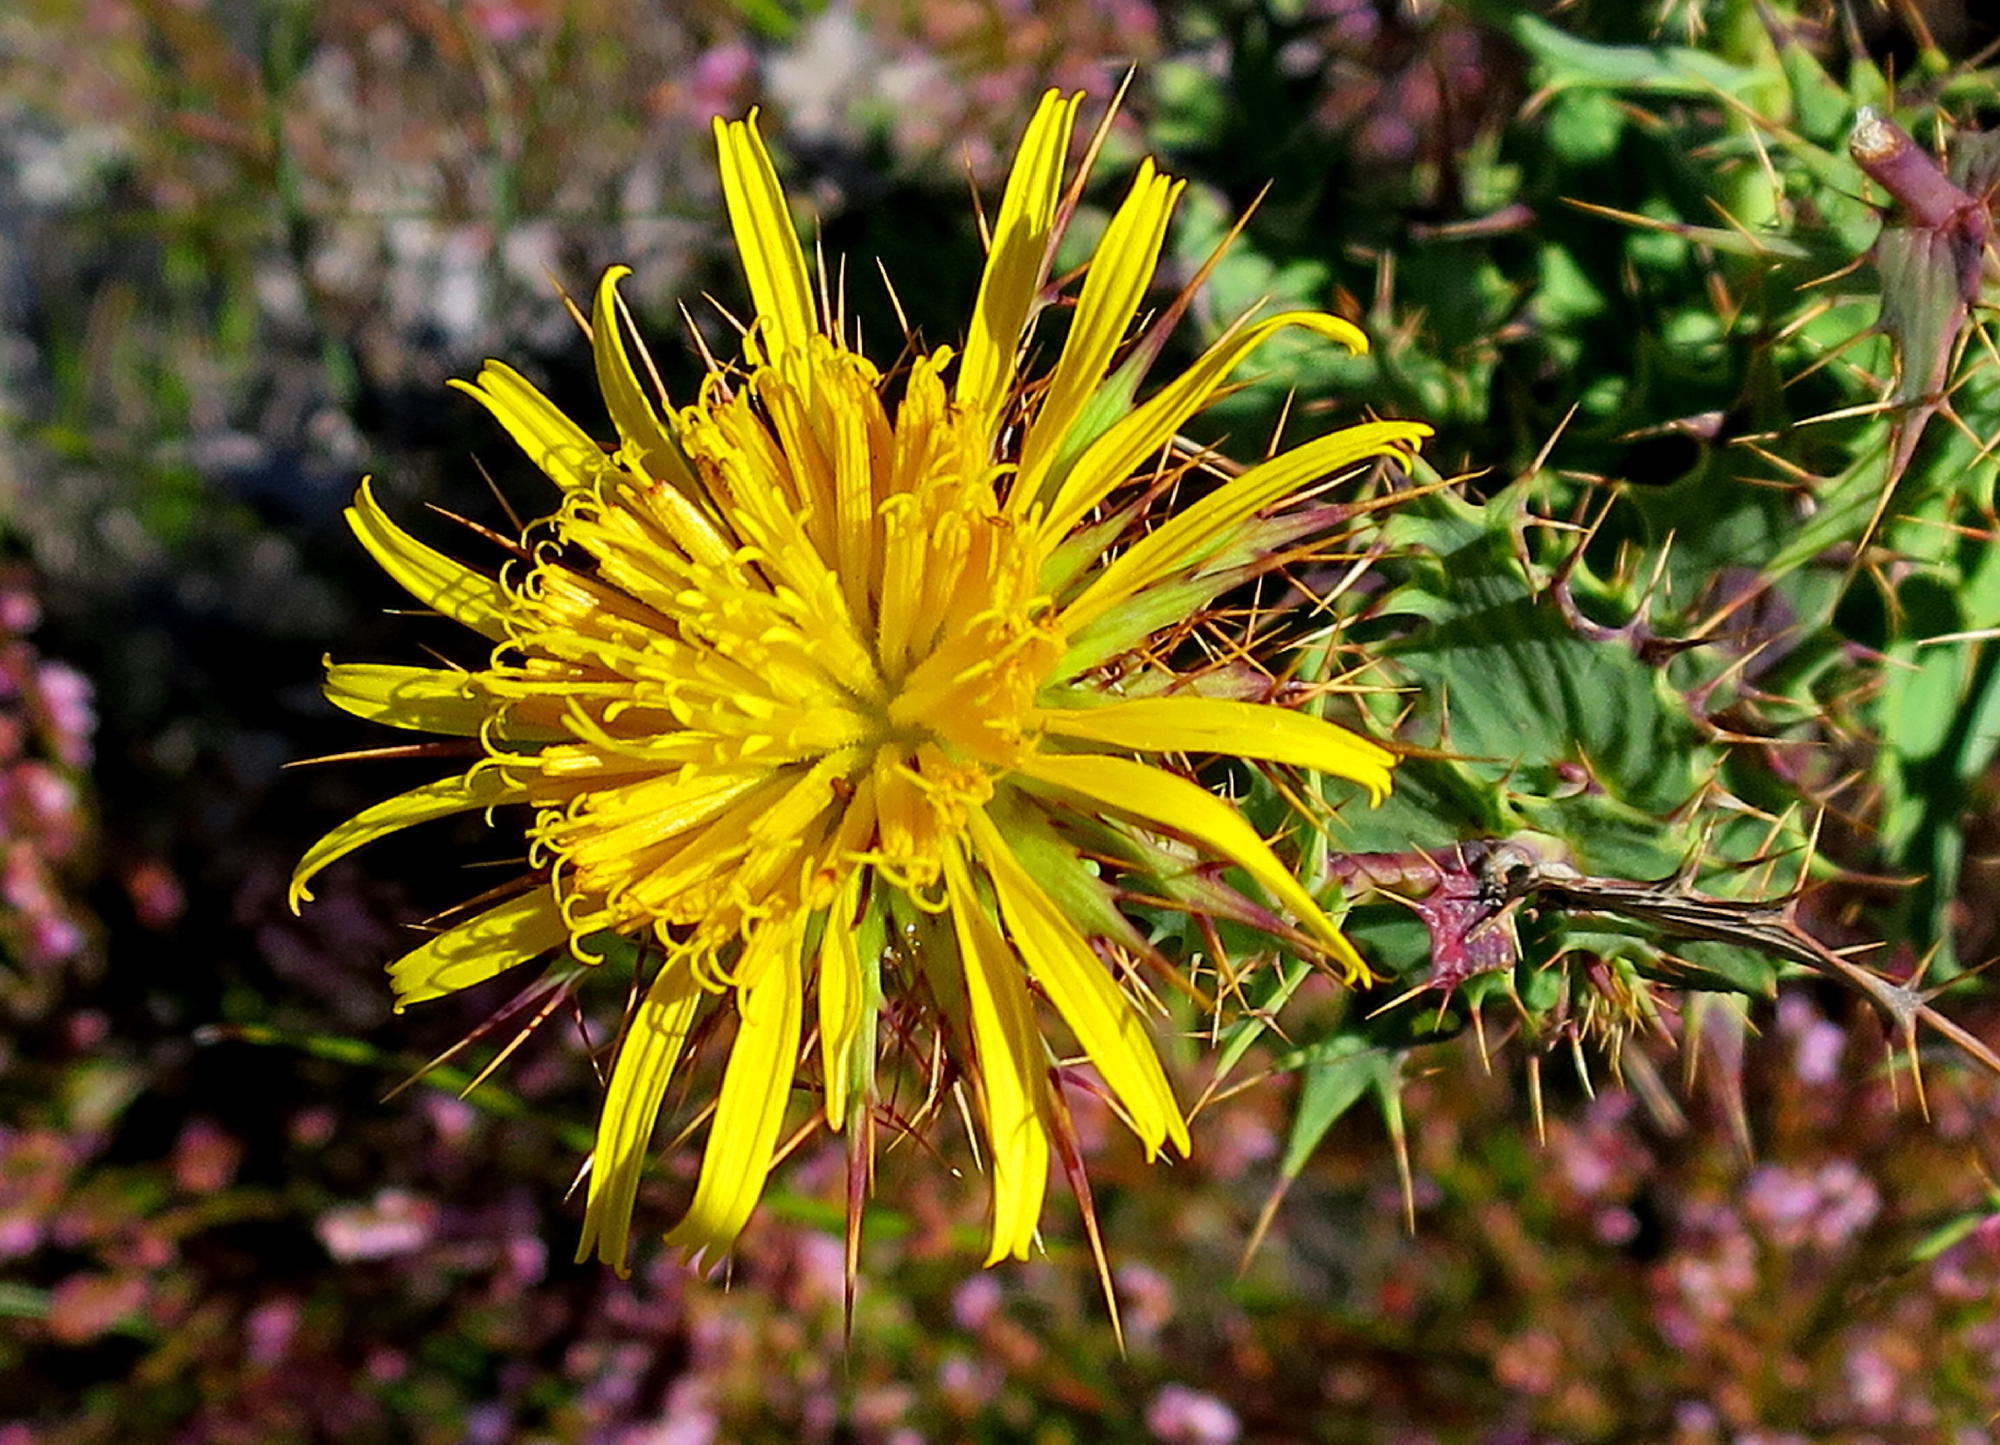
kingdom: Plantae
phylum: Tracheophyta
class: Magnoliopsida
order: Asterales
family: Asteraceae
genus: Berkheya
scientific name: Berkheya cruciata
